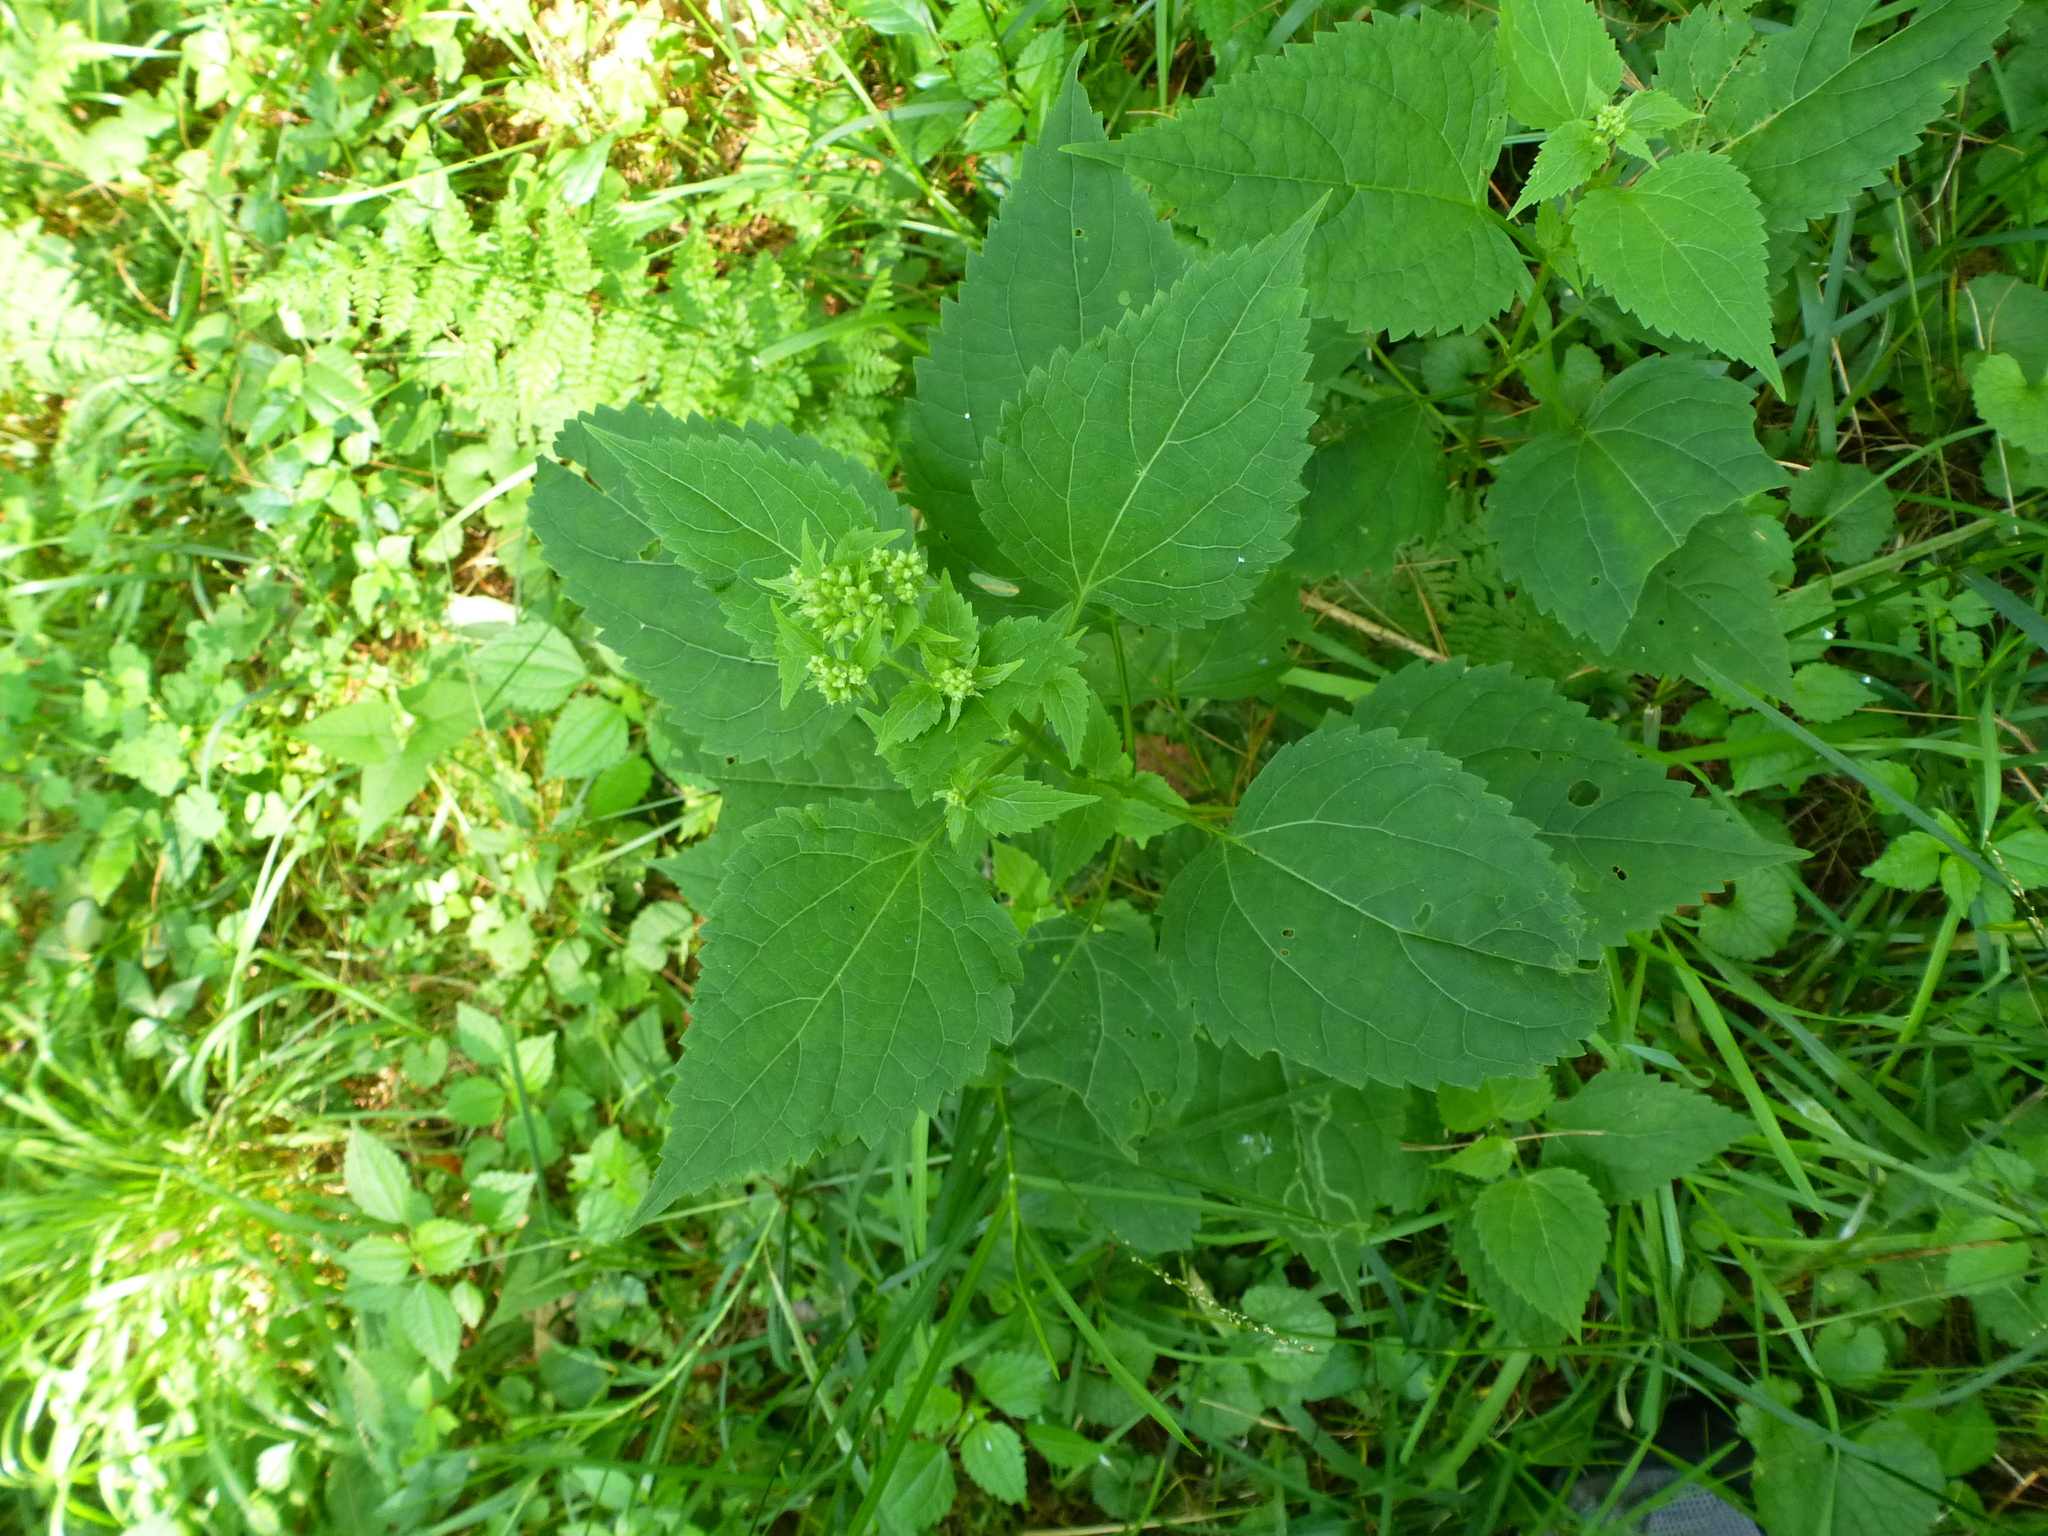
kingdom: Plantae
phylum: Tracheophyta
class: Magnoliopsida
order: Asterales
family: Asteraceae
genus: Ageratina
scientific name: Ageratina altissima
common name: White snakeroot
